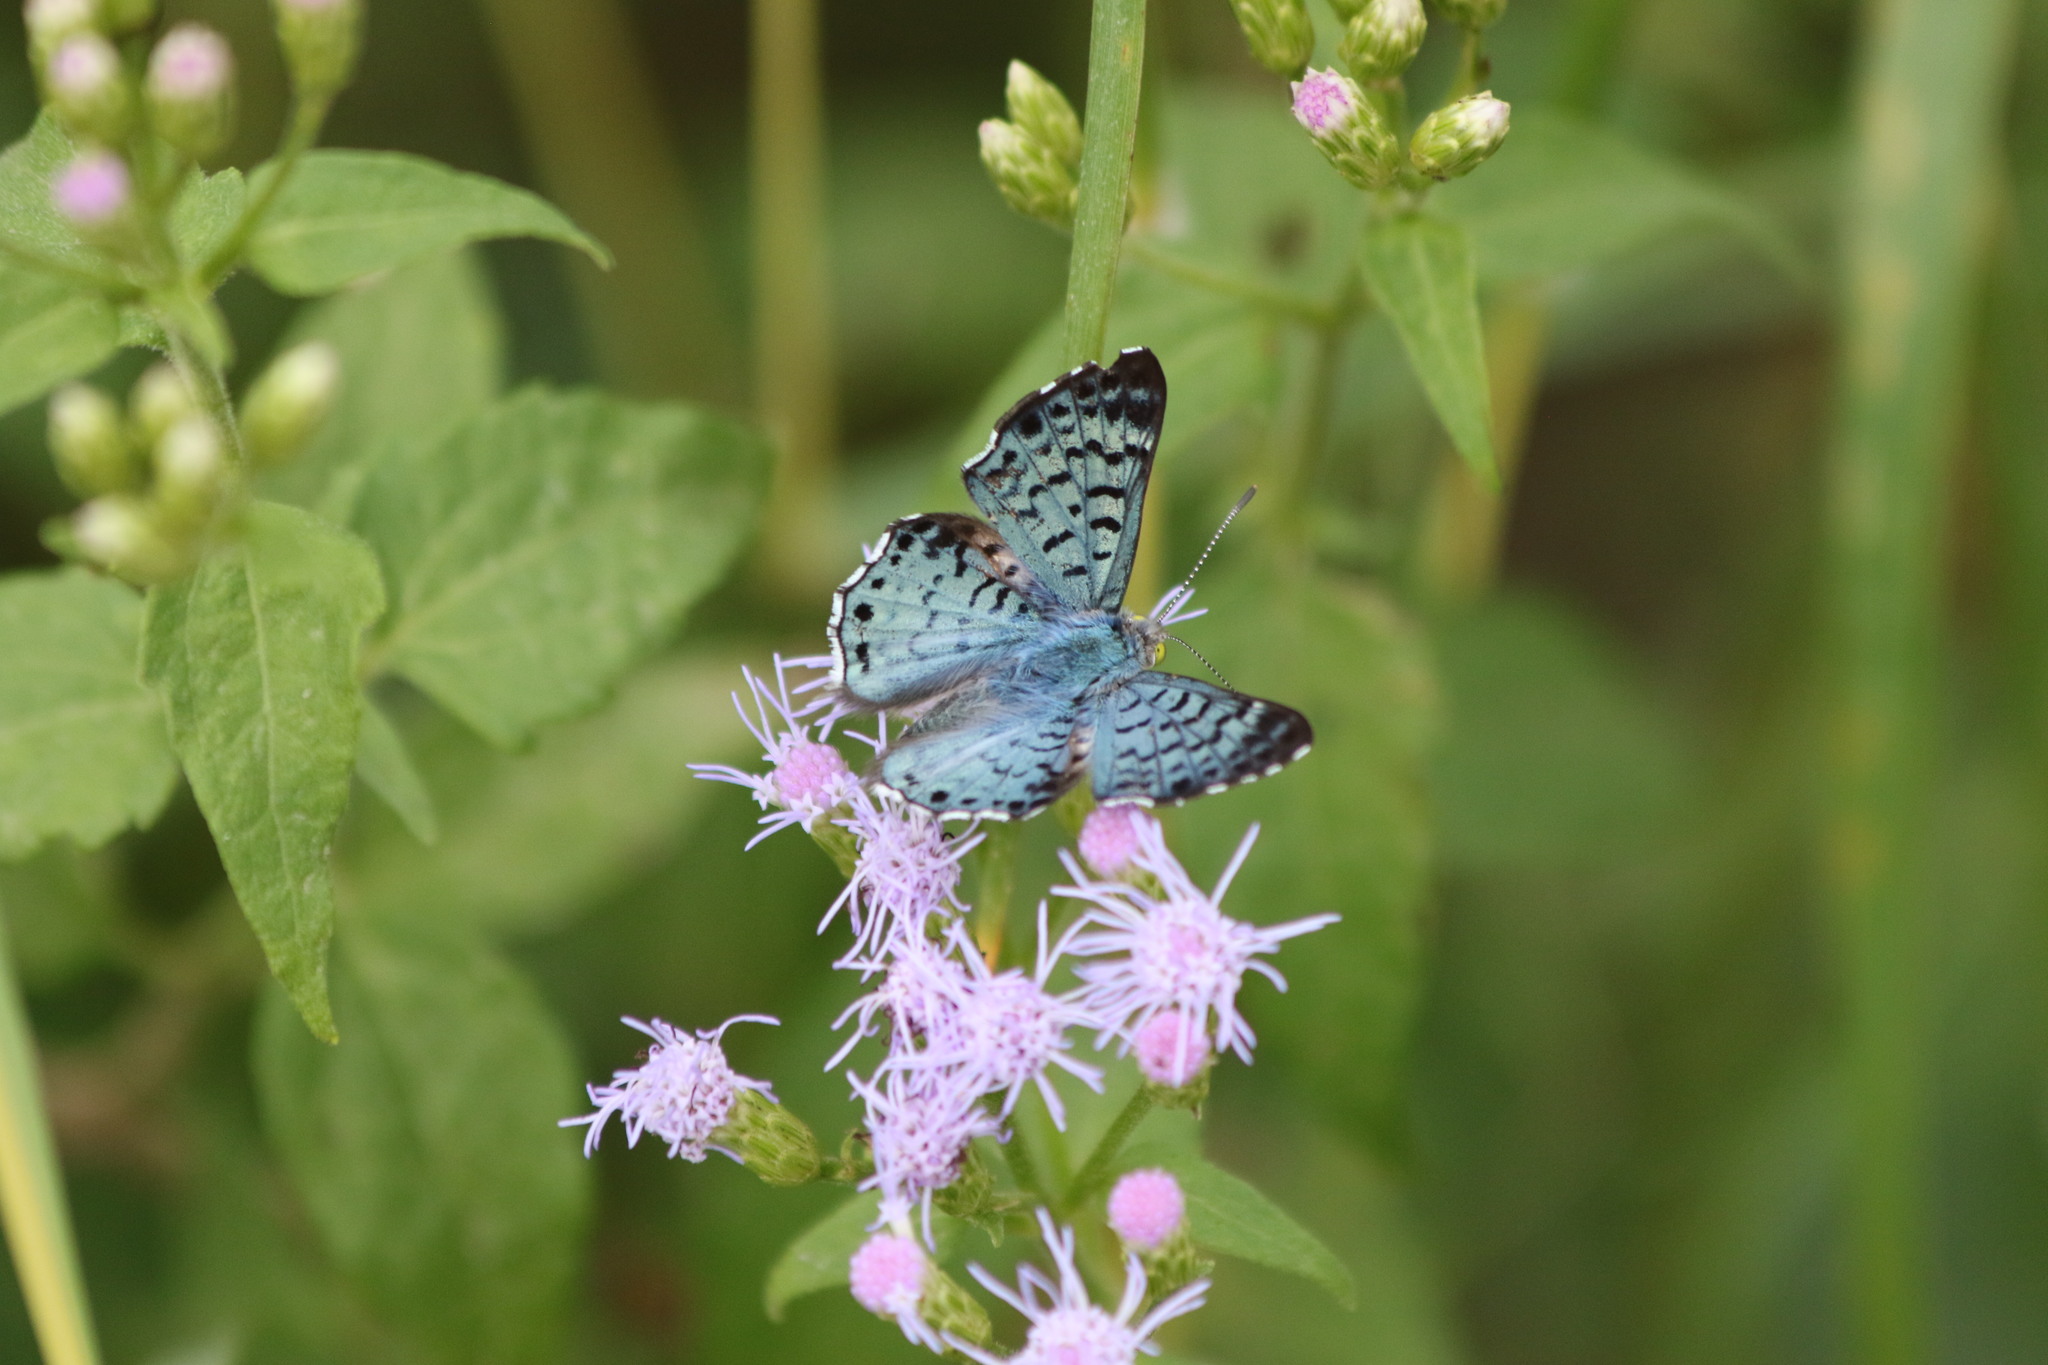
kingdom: Animalia
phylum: Arthropoda
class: Insecta
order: Lepidoptera
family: Riodinidae
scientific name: Riodinidae
